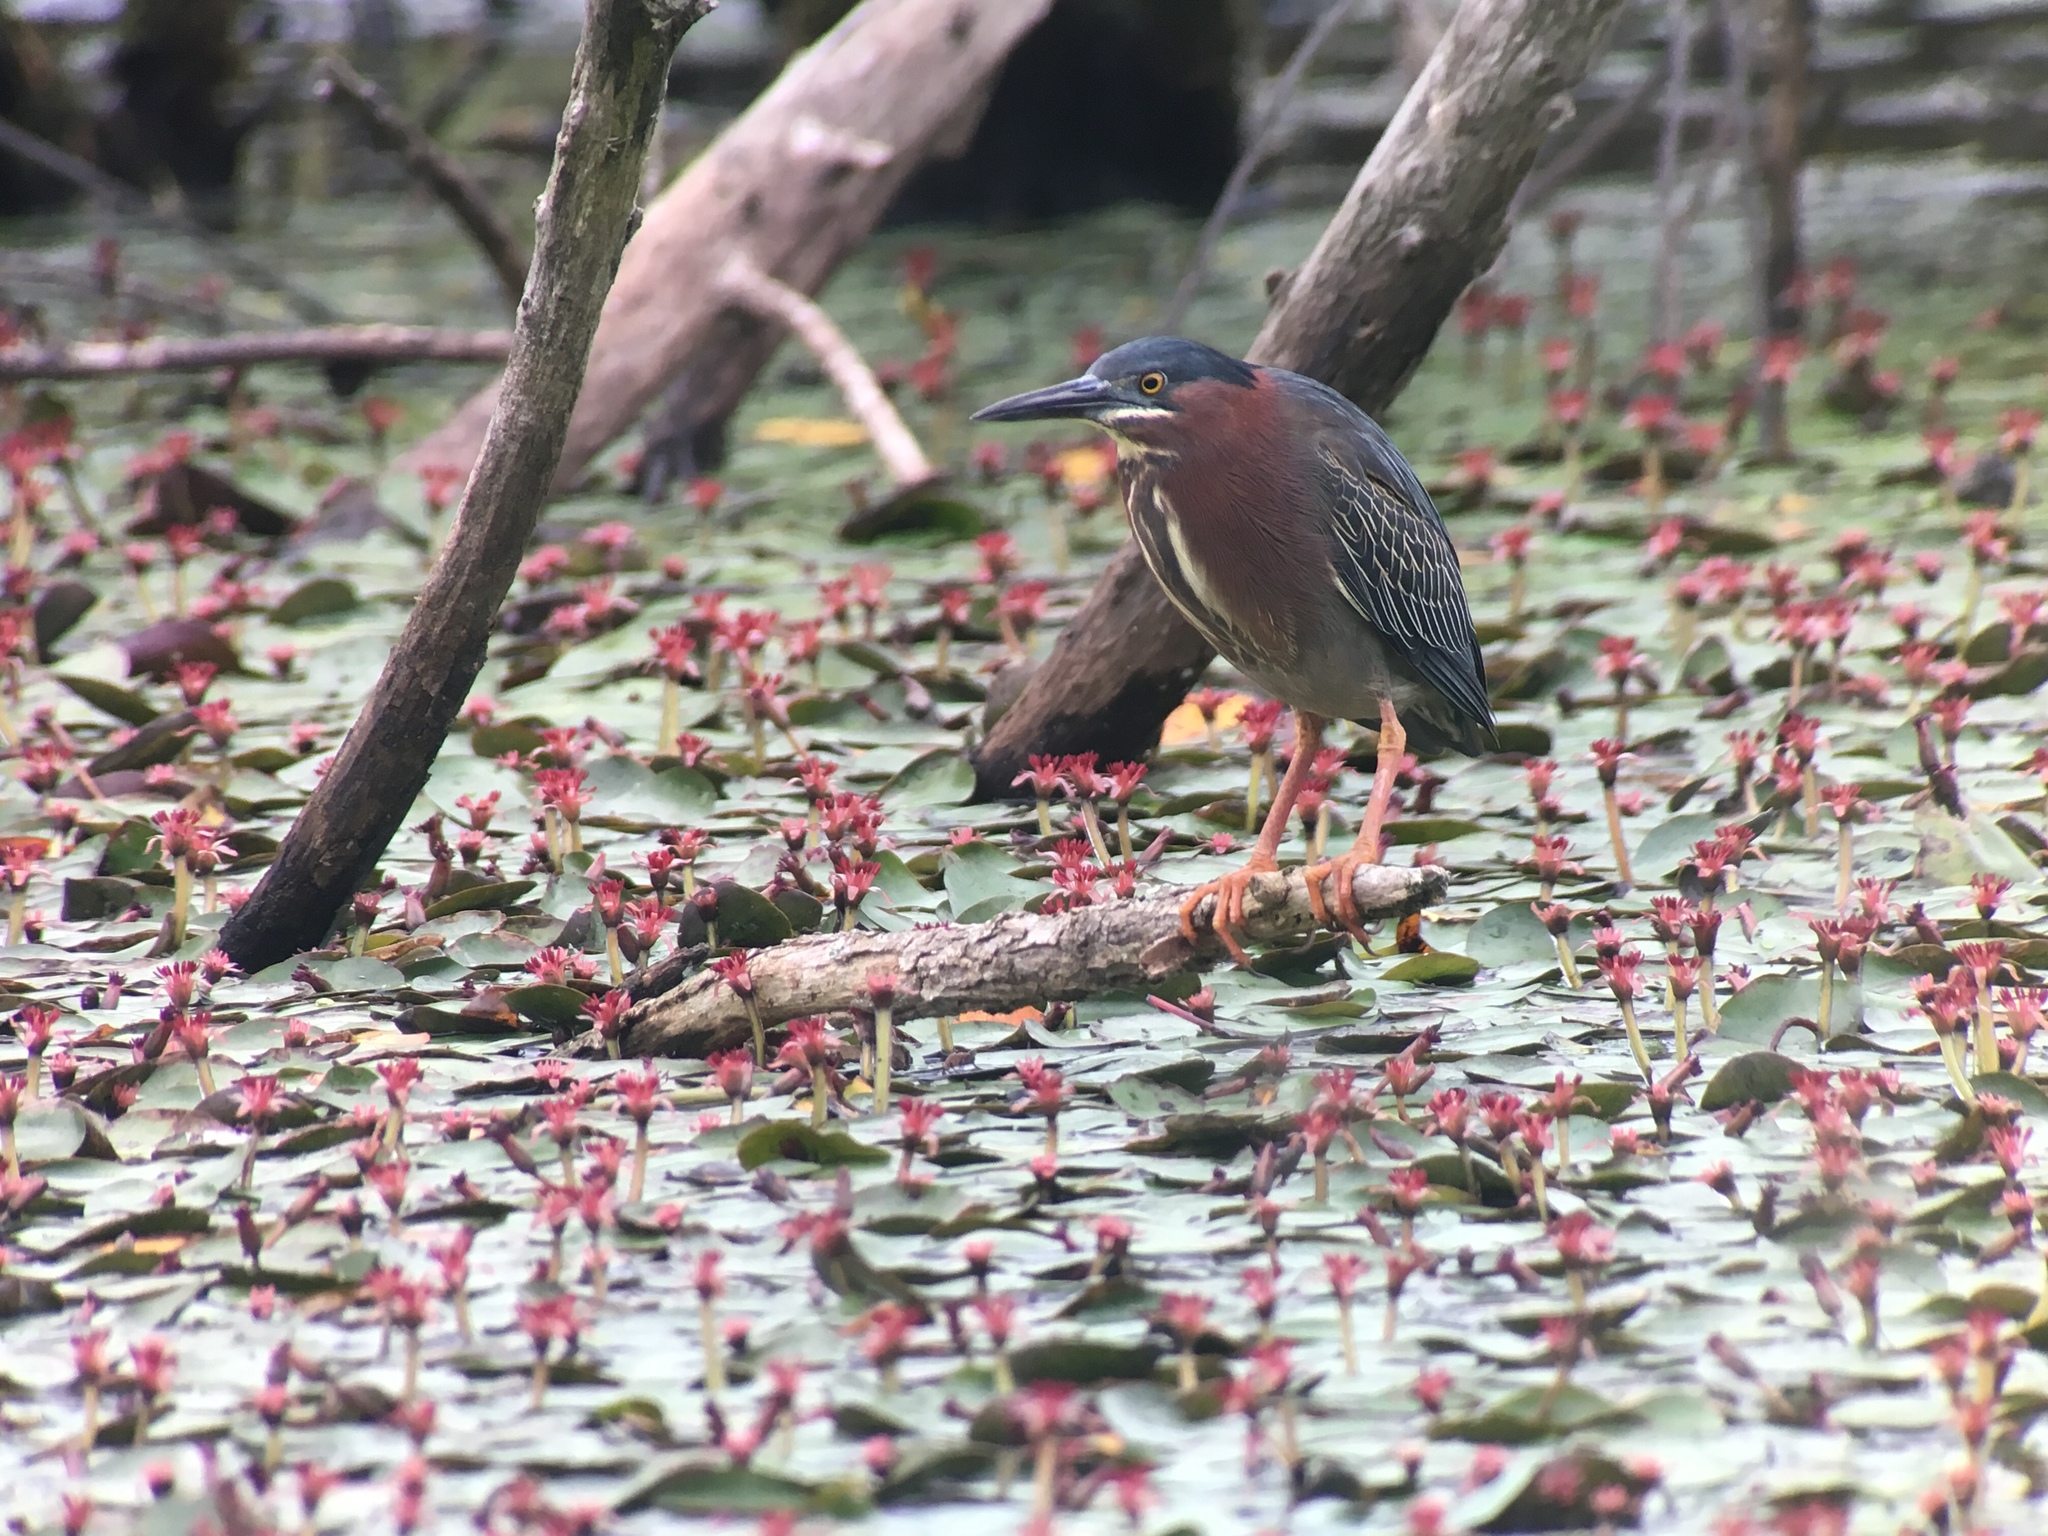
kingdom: Animalia
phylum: Chordata
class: Aves
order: Pelecaniformes
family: Ardeidae
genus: Butorides
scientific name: Butorides virescens
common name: Green heron
